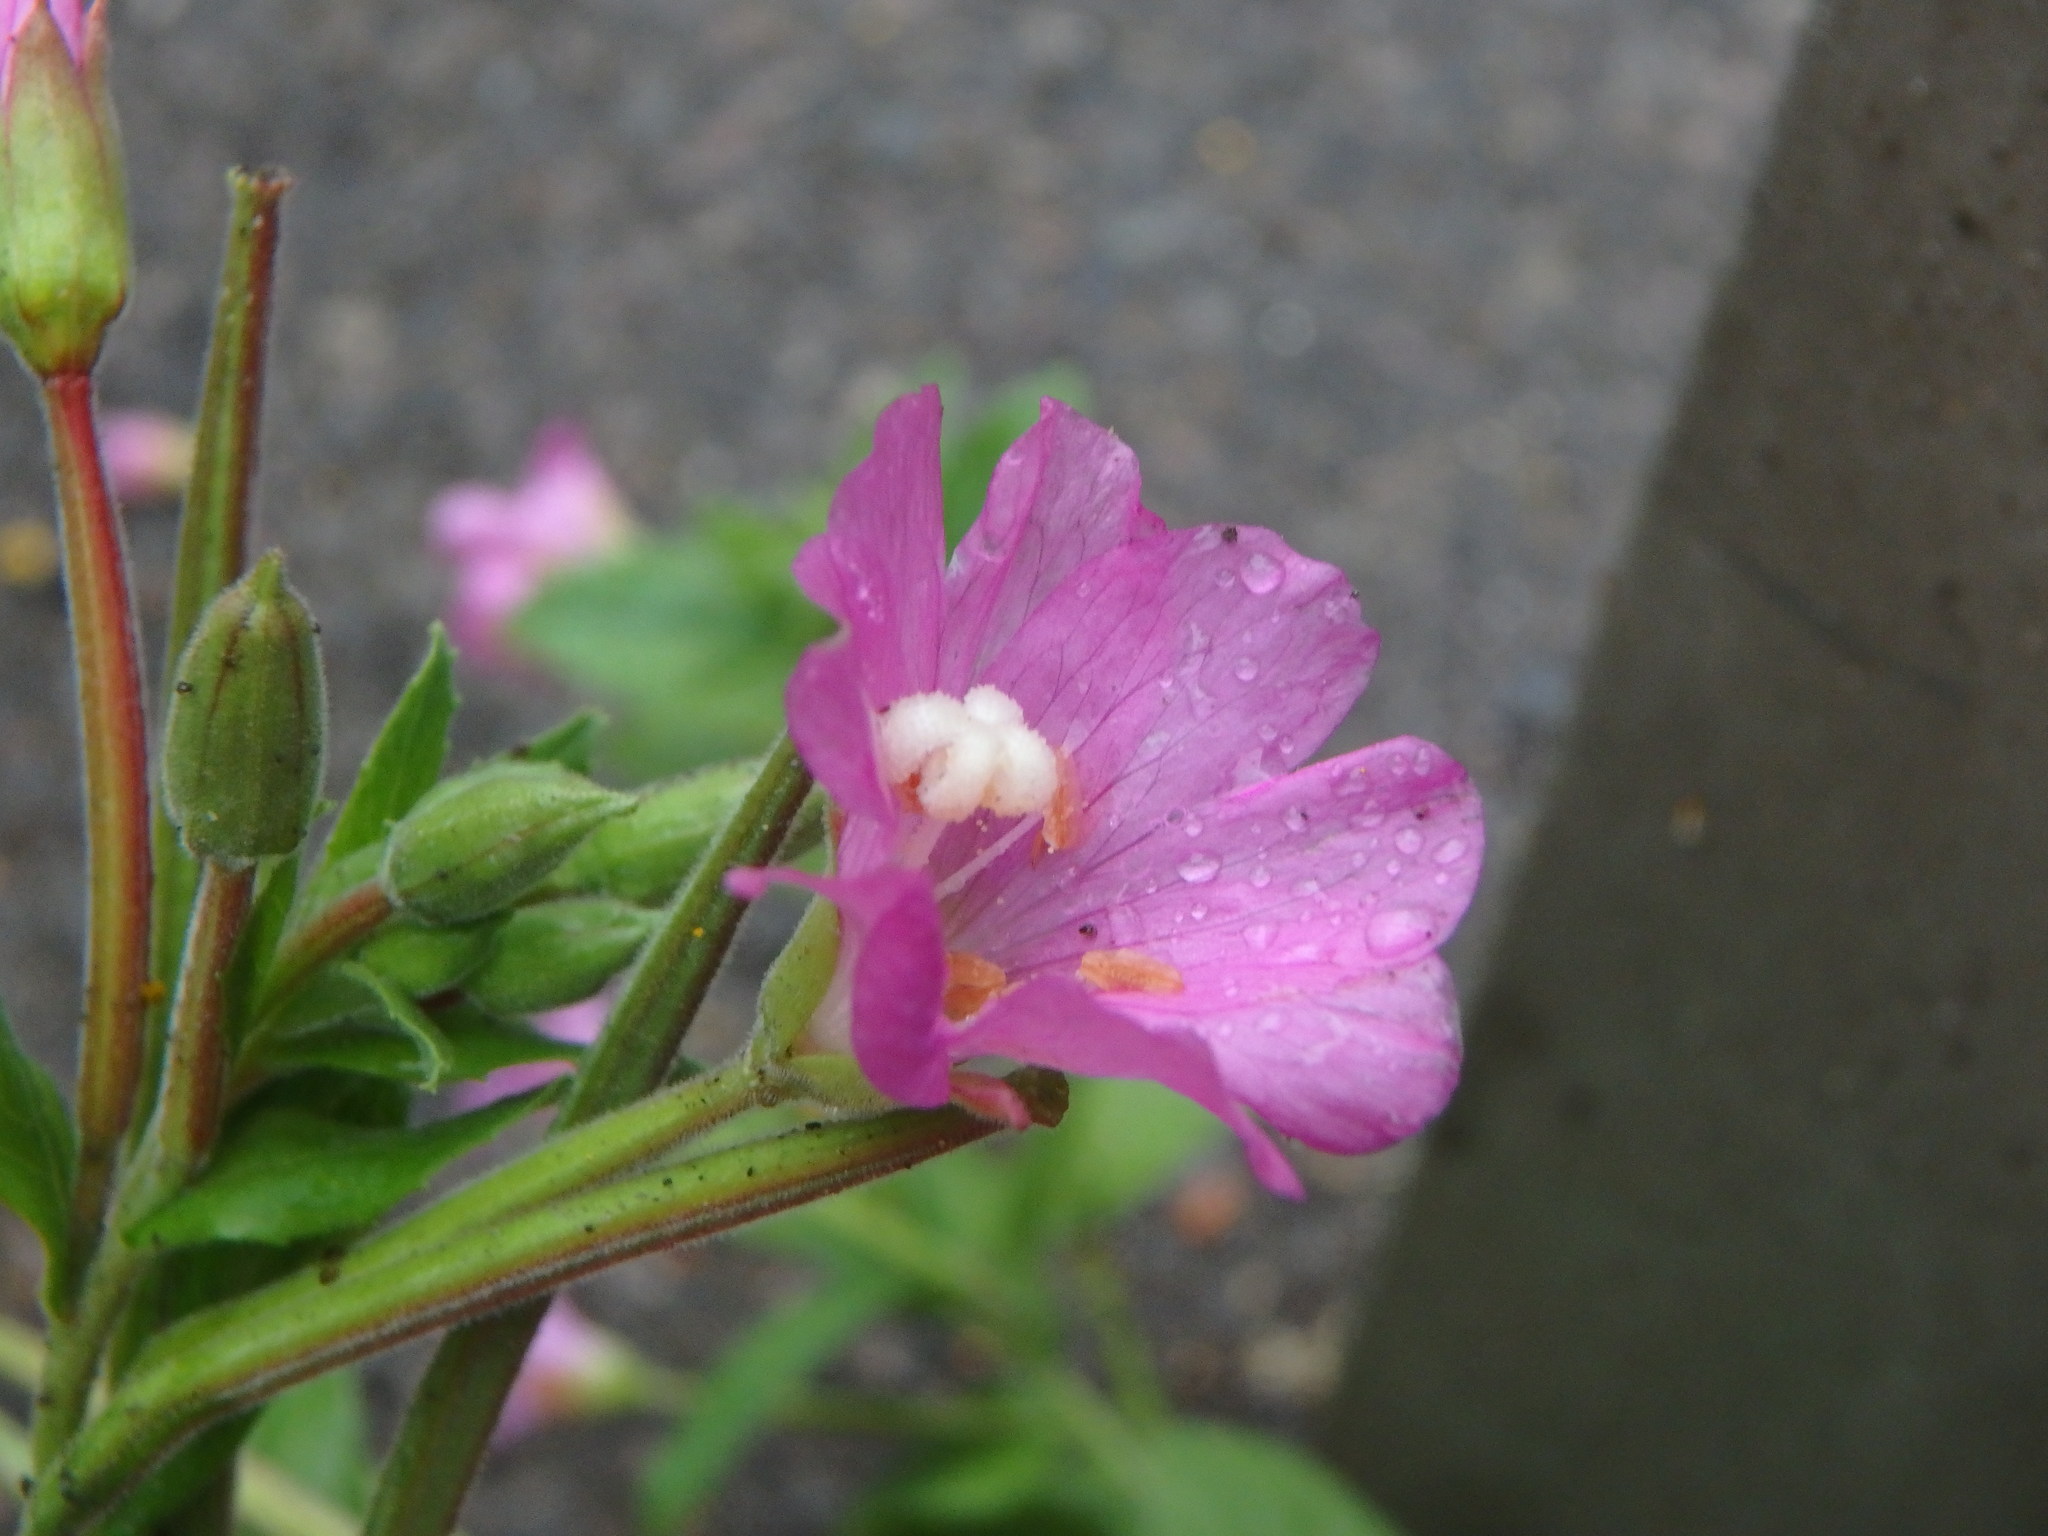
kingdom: Plantae
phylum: Tracheophyta
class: Magnoliopsida
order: Myrtales
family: Onagraceae
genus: Epilobium
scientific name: Epilobium hirsutum
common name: Great willowherb
